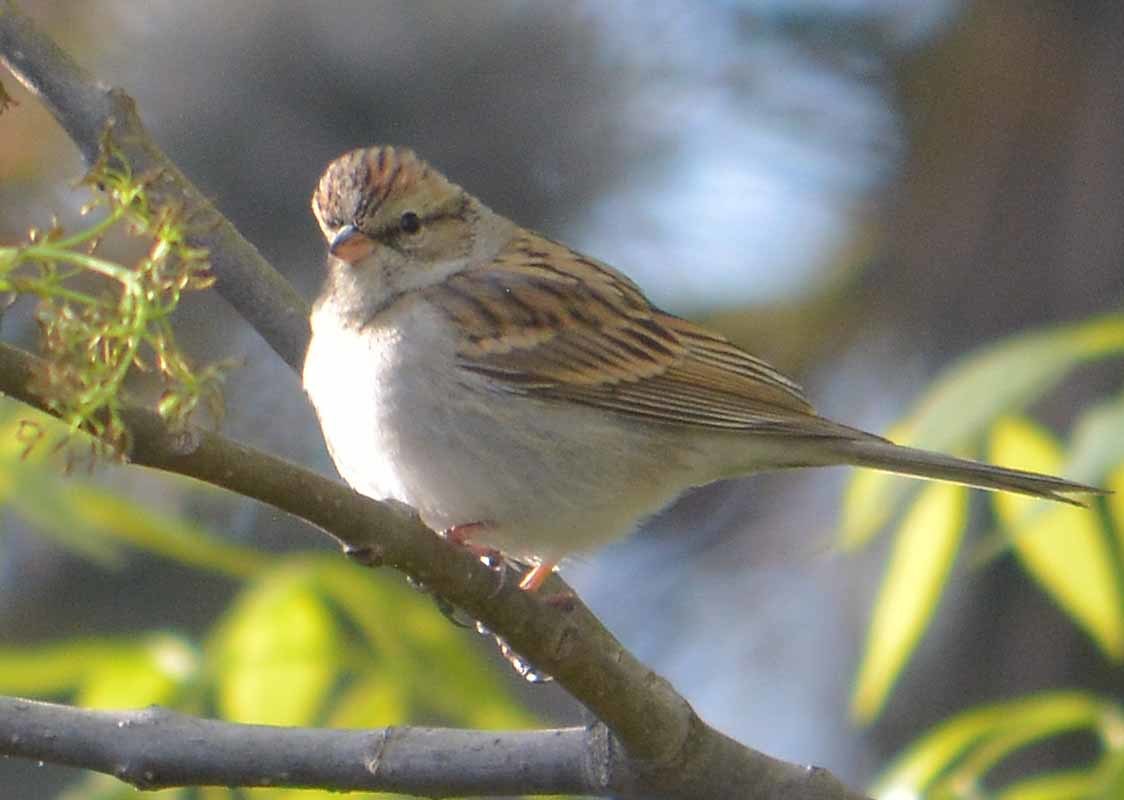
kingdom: Animalia
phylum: Chordata
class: Aves
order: Passeriformes
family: Passerellidae
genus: Spizella
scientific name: Spizella passerina
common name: Chipping sparrow
